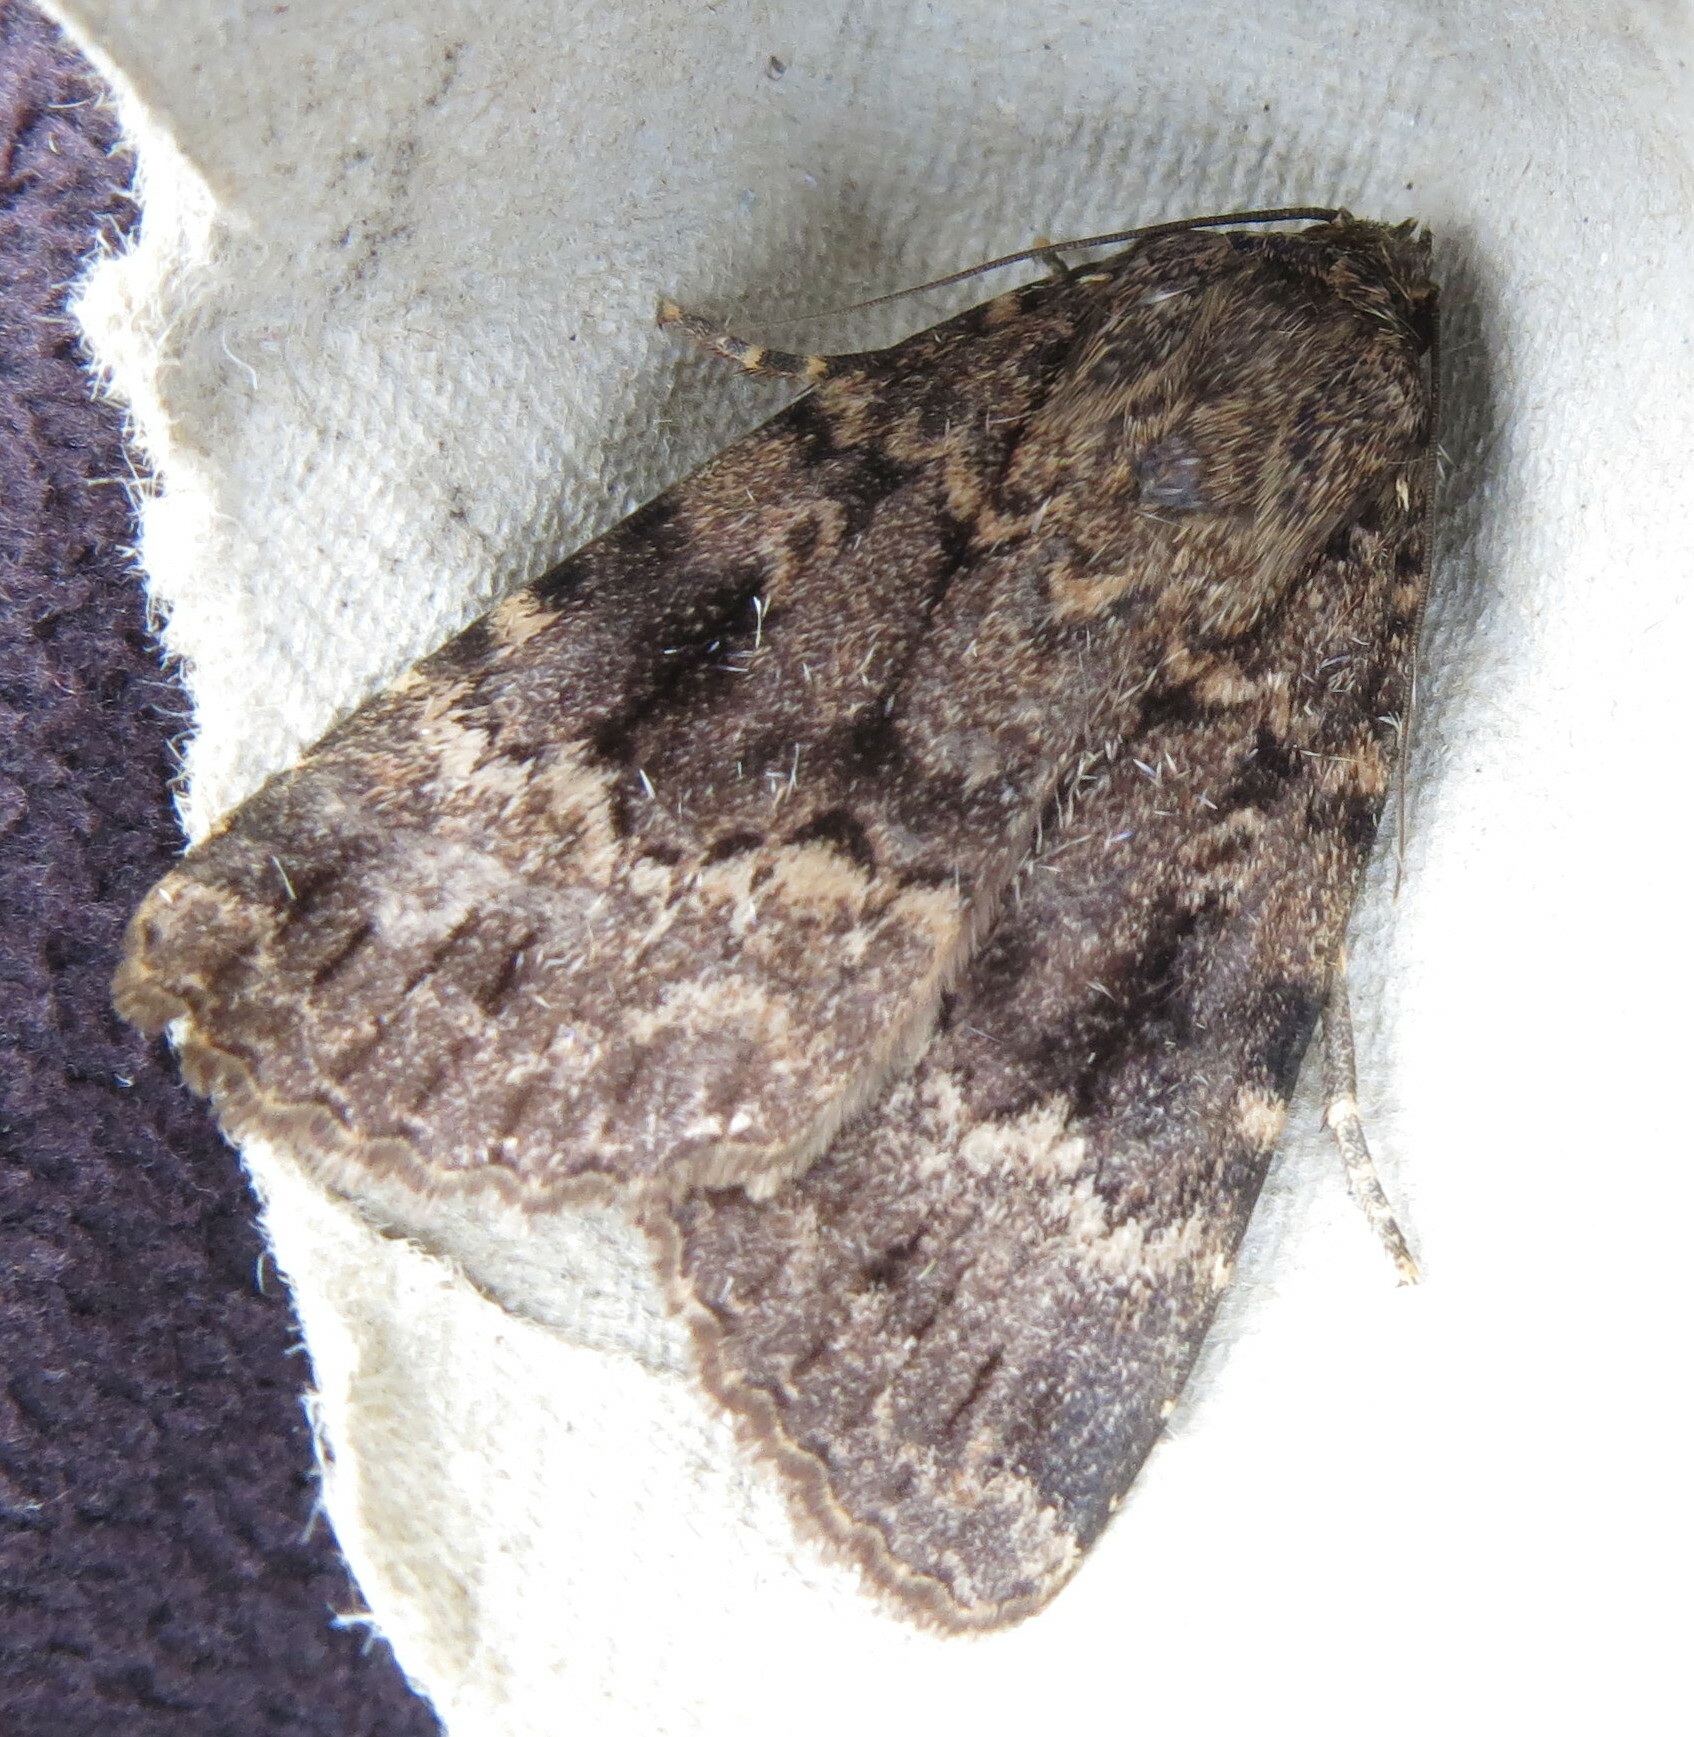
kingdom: Animalia
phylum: Arthropoda
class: Insecta
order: Lepidoptera
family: Noctuidae
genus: Amphipyra
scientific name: Amphipyra berbera
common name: Svensson's copper underwing
